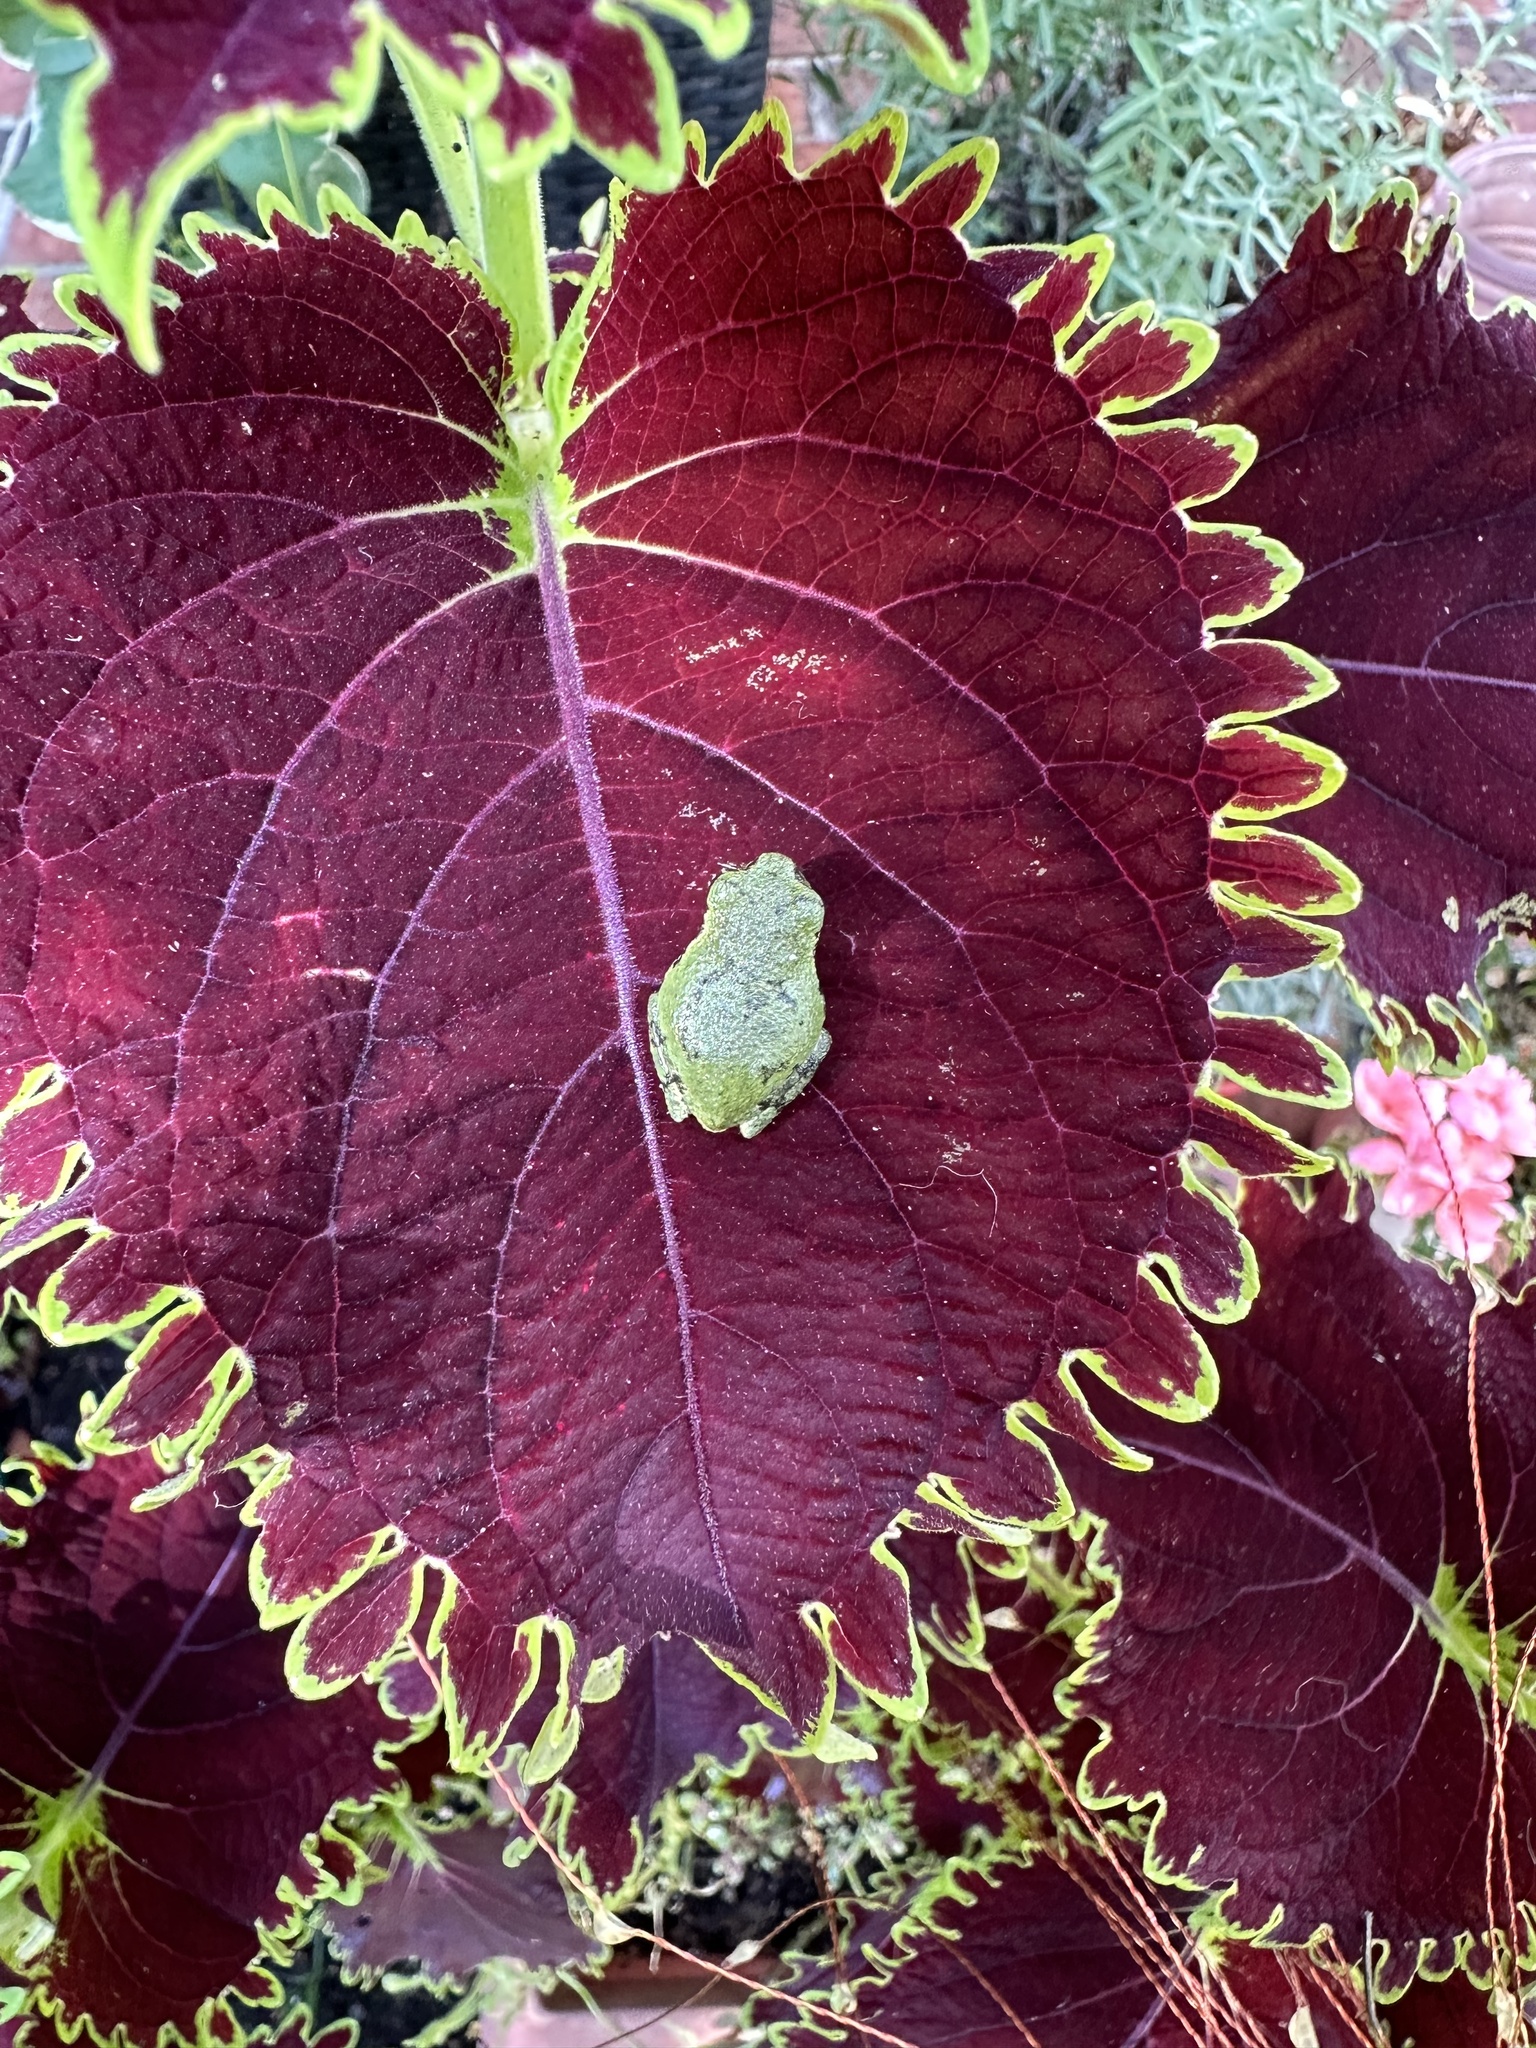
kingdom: Animalia
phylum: Chordata
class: Amphibia
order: Anura
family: Hylidae
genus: Dryophytes
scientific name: Dryophytes versicolor
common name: Gray treefrog
